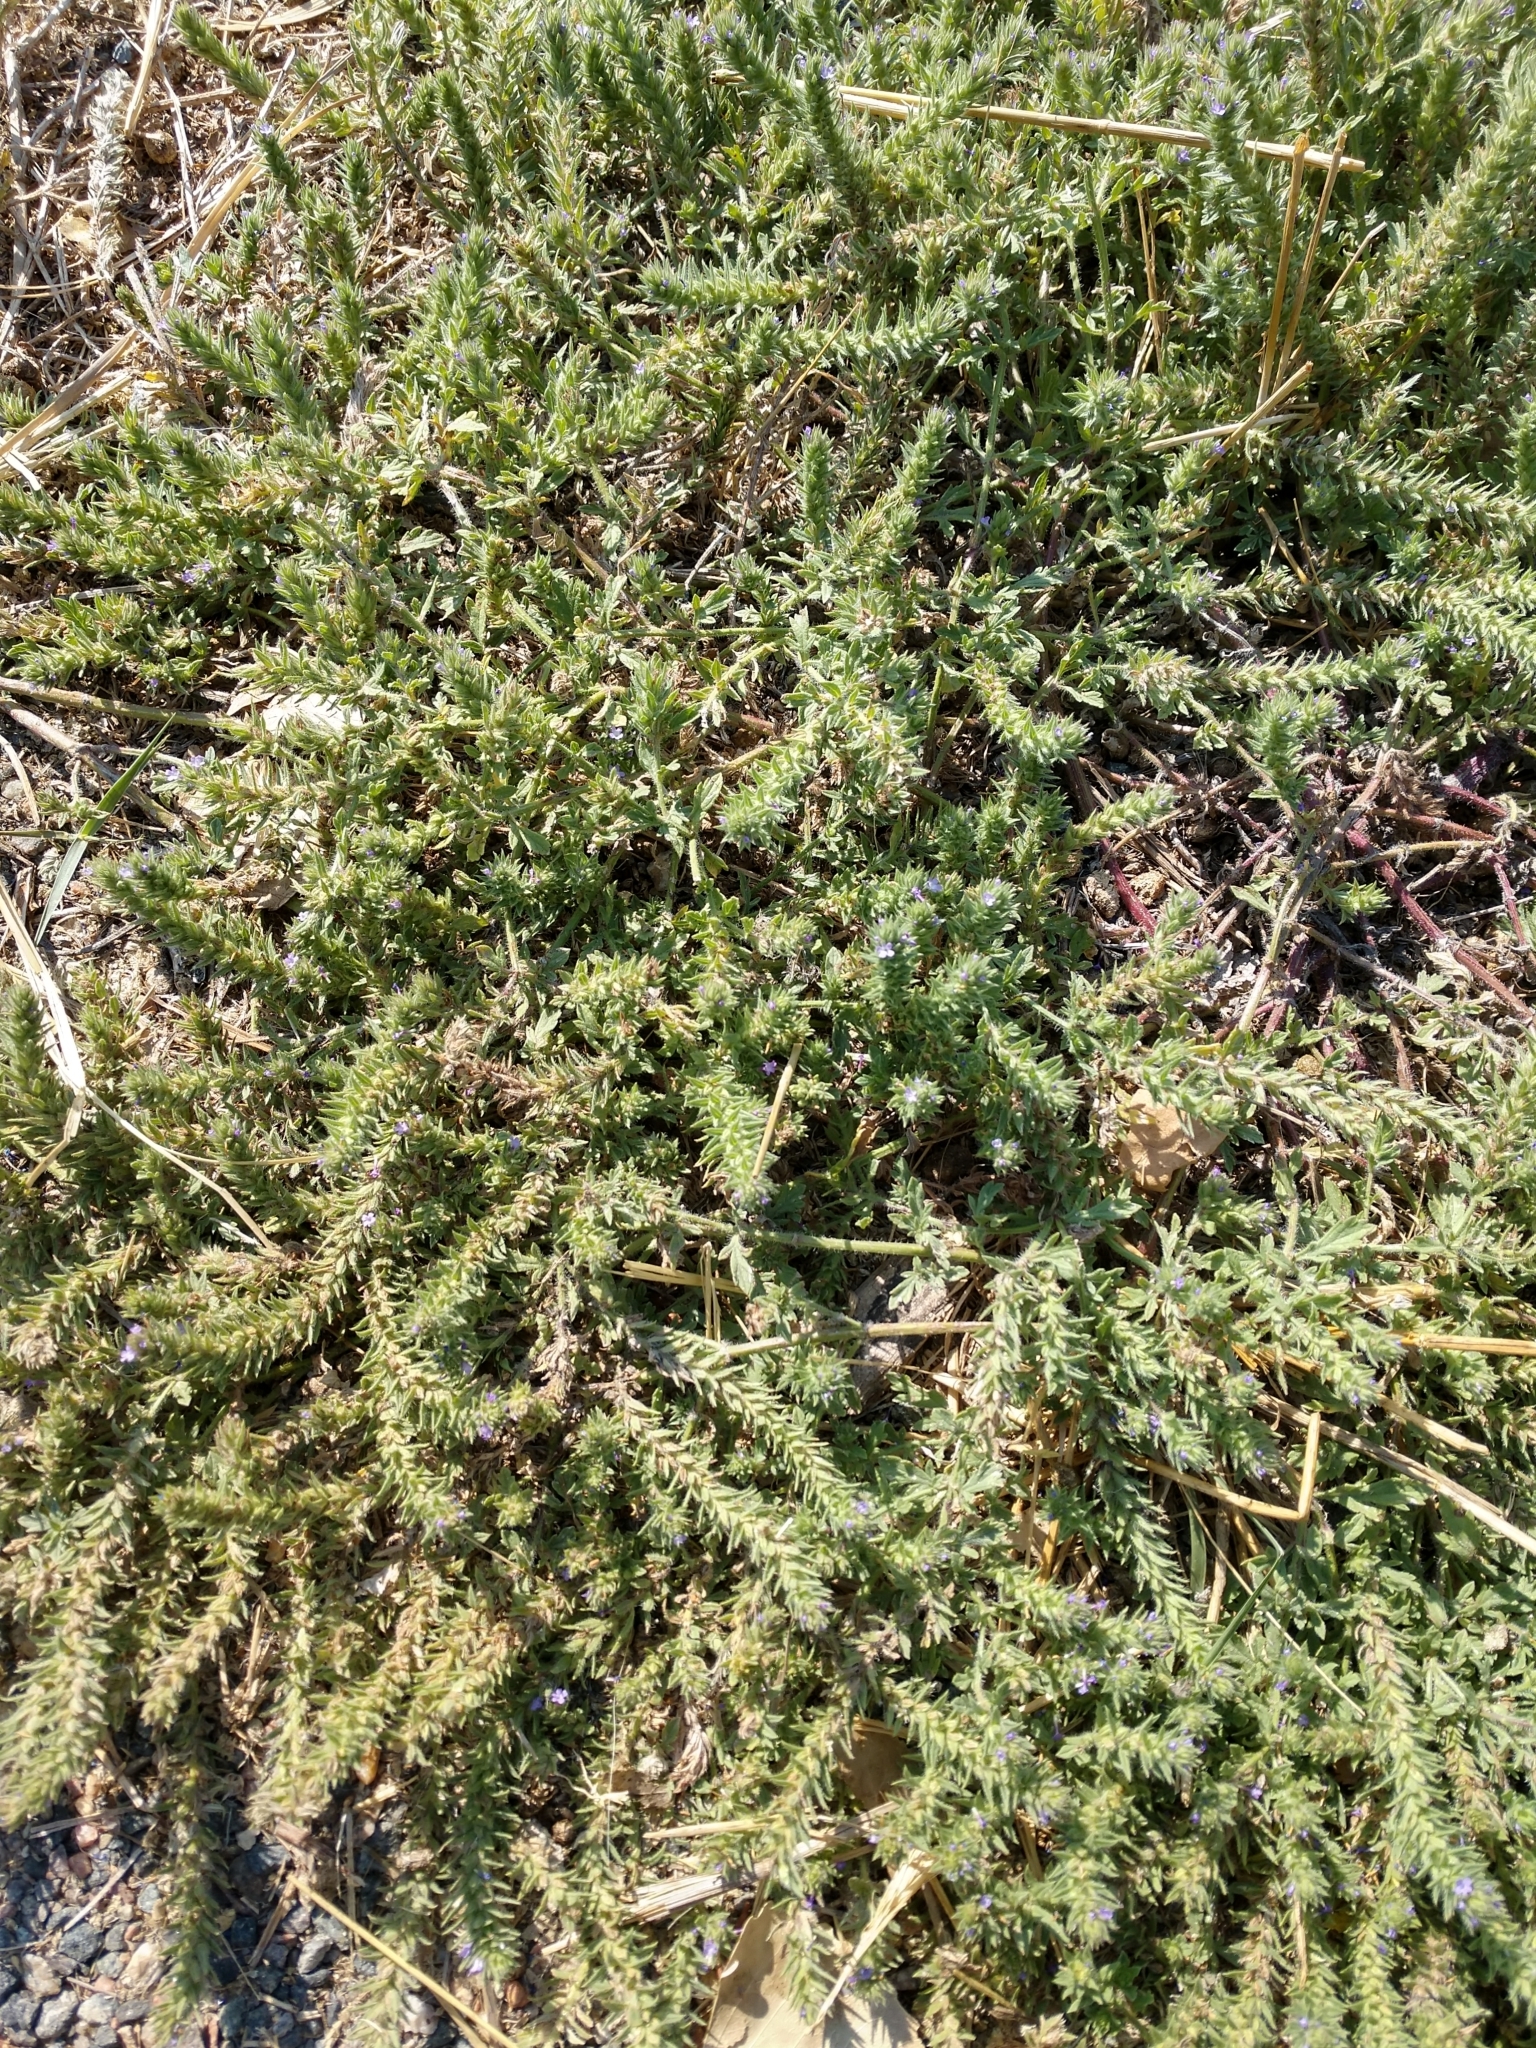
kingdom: Plantae
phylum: Tracheophyta
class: Magnoliopsida
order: Lamiales
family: Verbenaceae
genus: Verbena
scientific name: Verbena bracteata
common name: Bracted vervain
